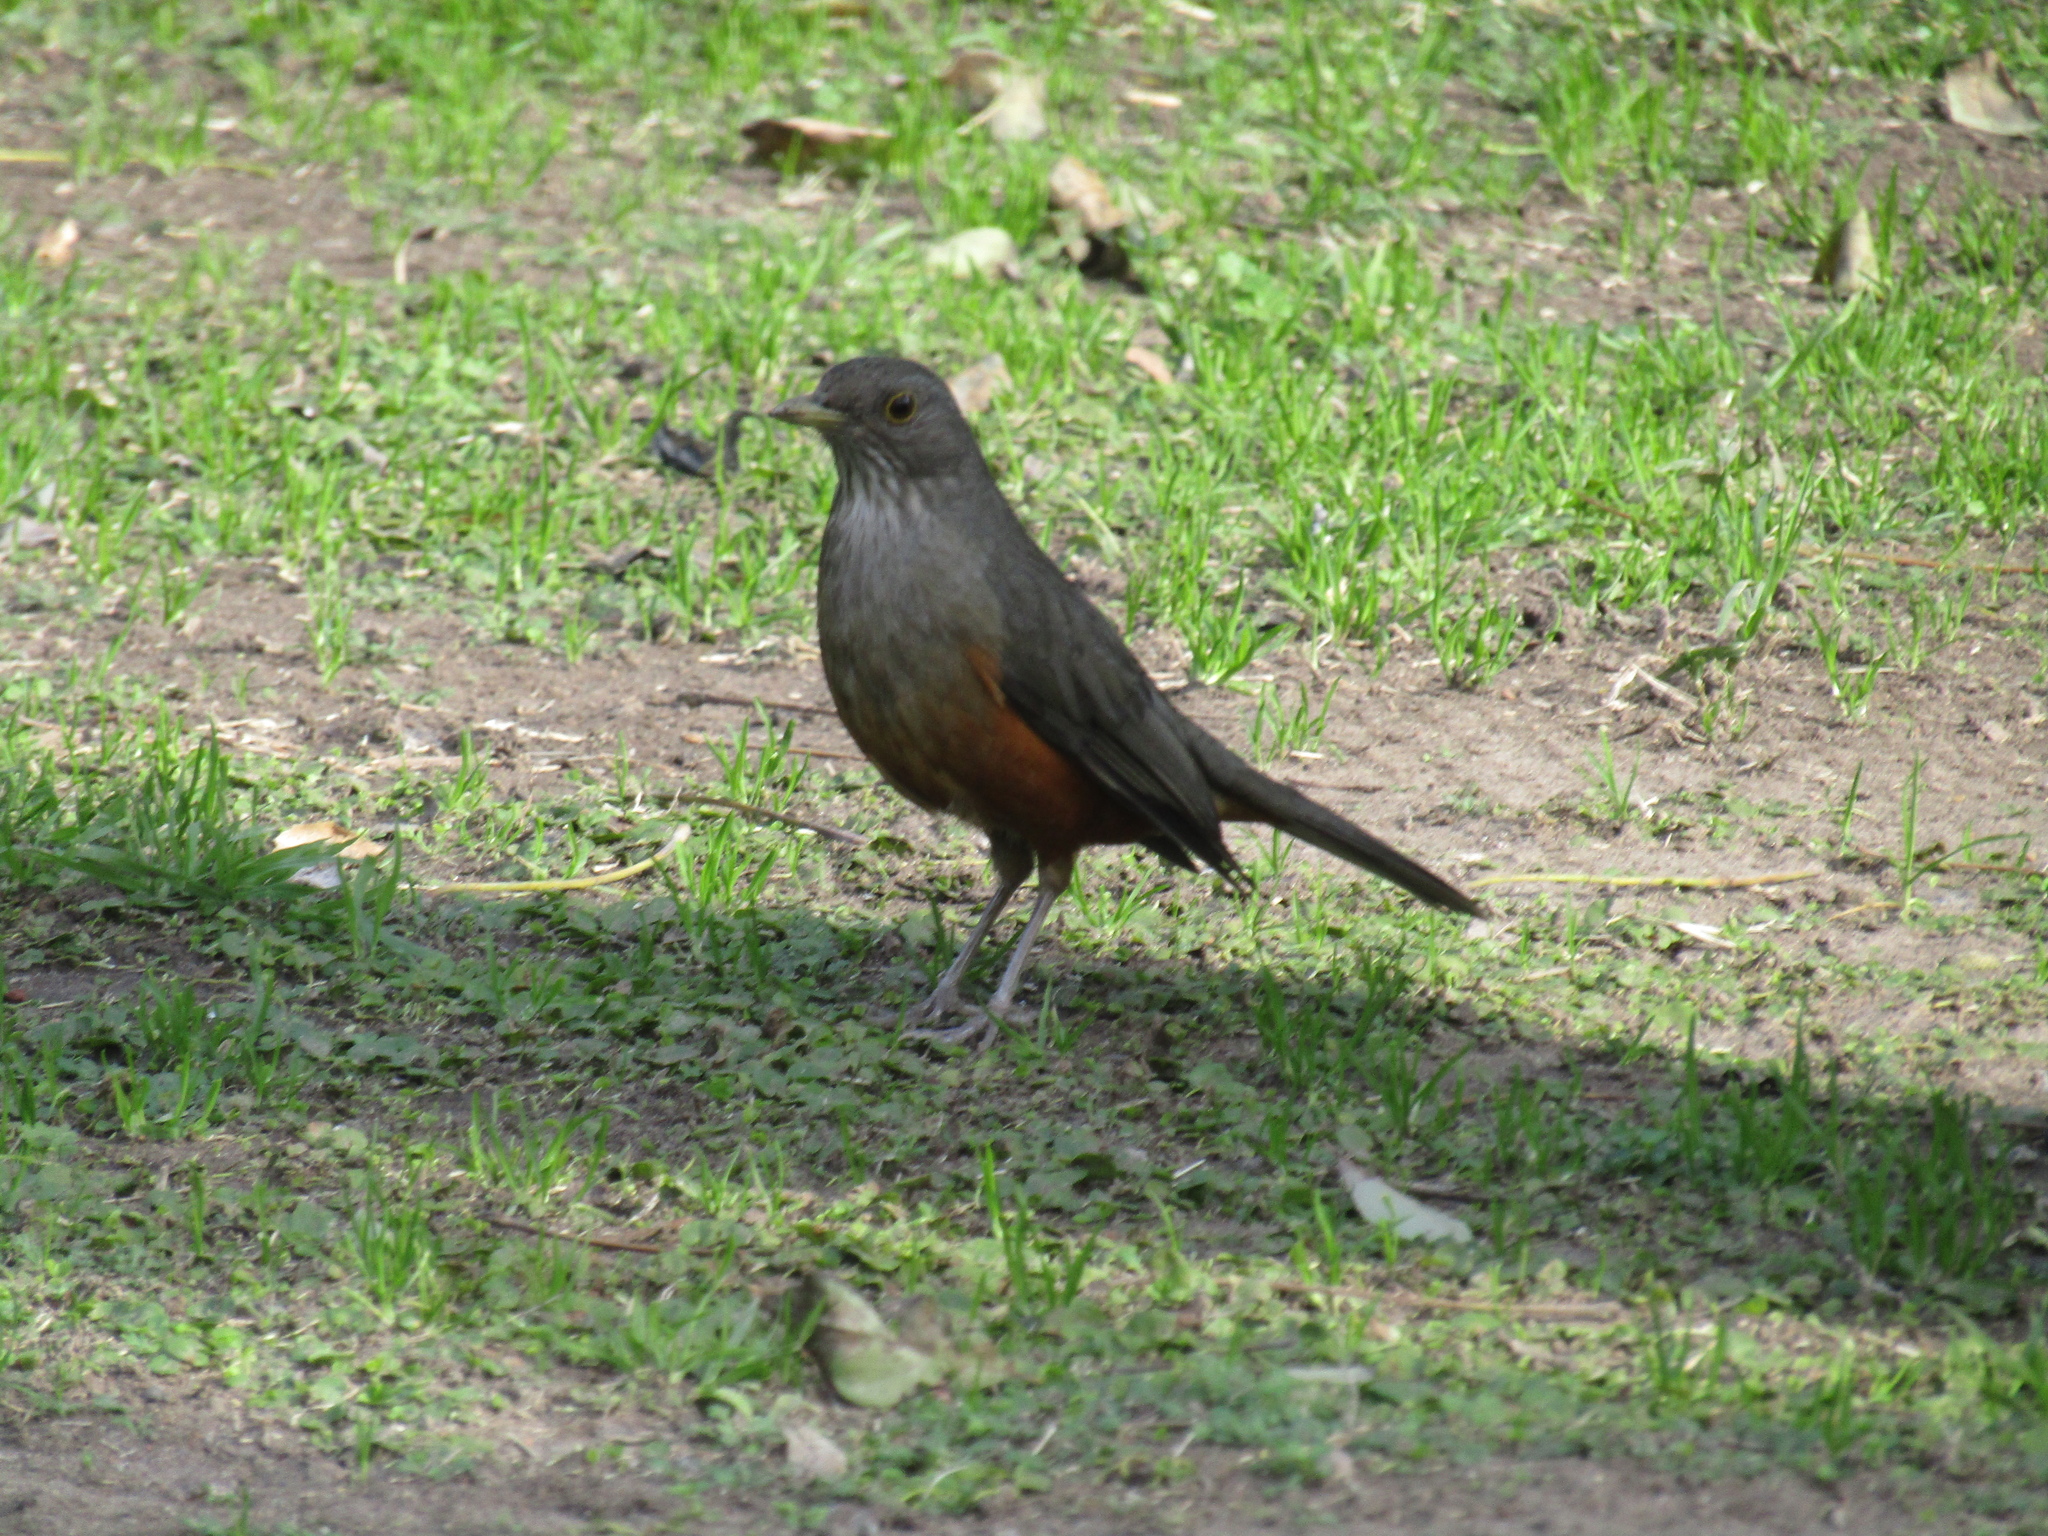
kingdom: Animalia
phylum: Chordata
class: Aves
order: Passeriformes
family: Turdidae
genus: Turdus
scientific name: Turdus rufiventris
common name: Rufous-bellied thrush
